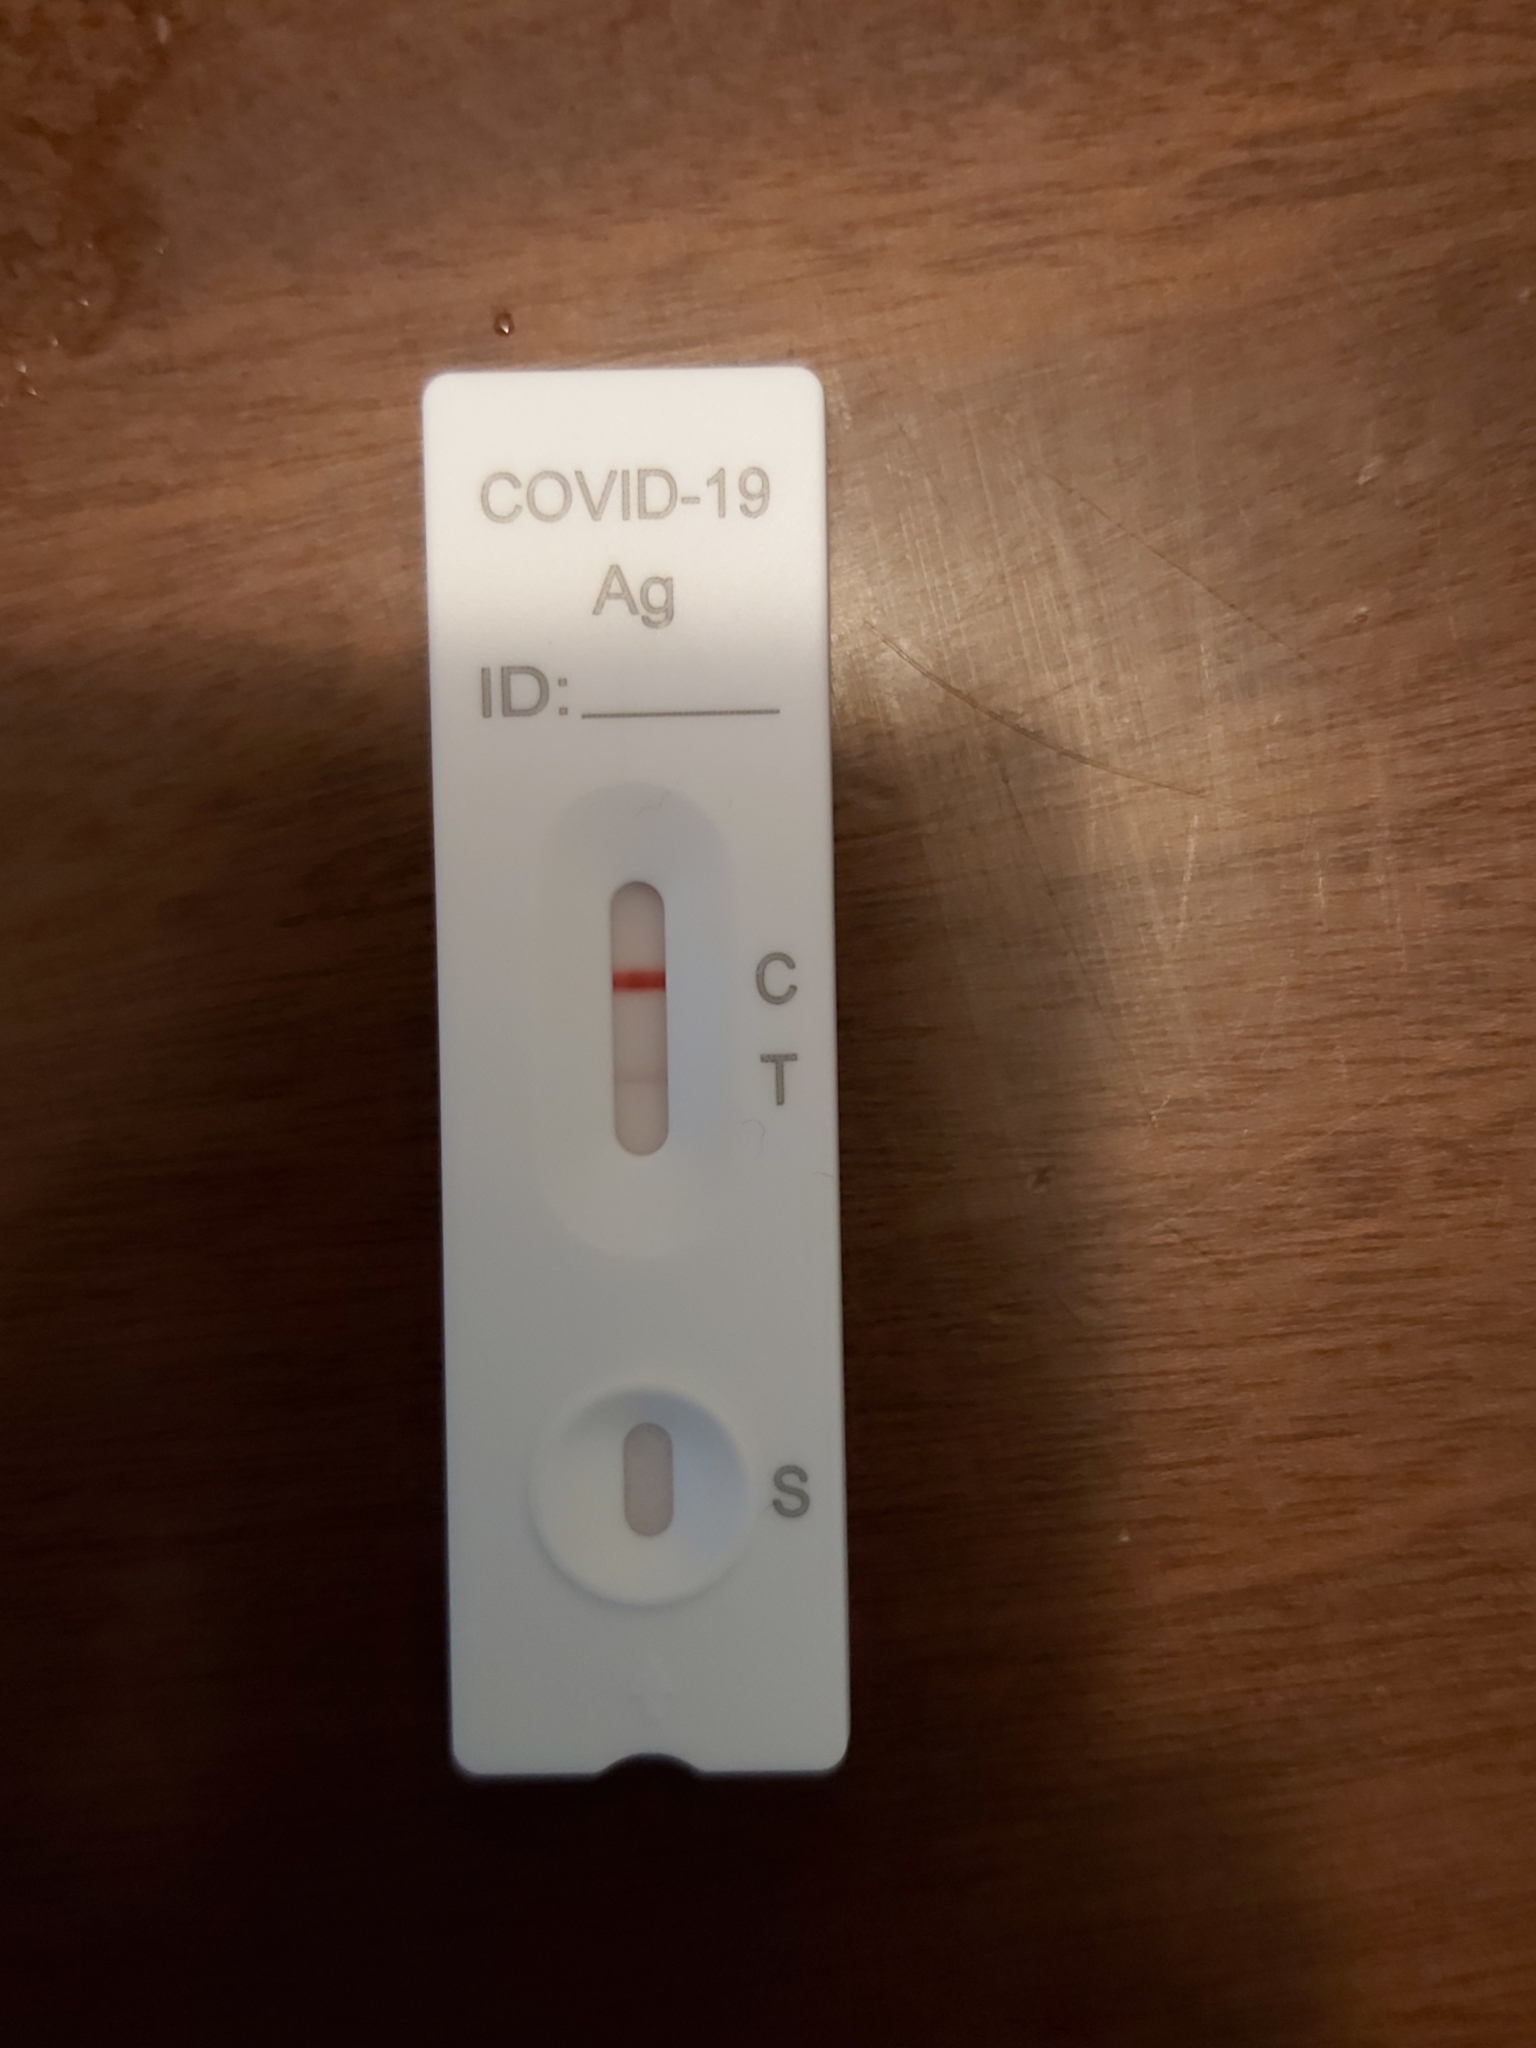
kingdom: Viruses
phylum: Pisuviricota
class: Pisoniviricetes
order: Nidovirales
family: Coronaviridae
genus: Betacoronavirus
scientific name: Betacoronavirus
